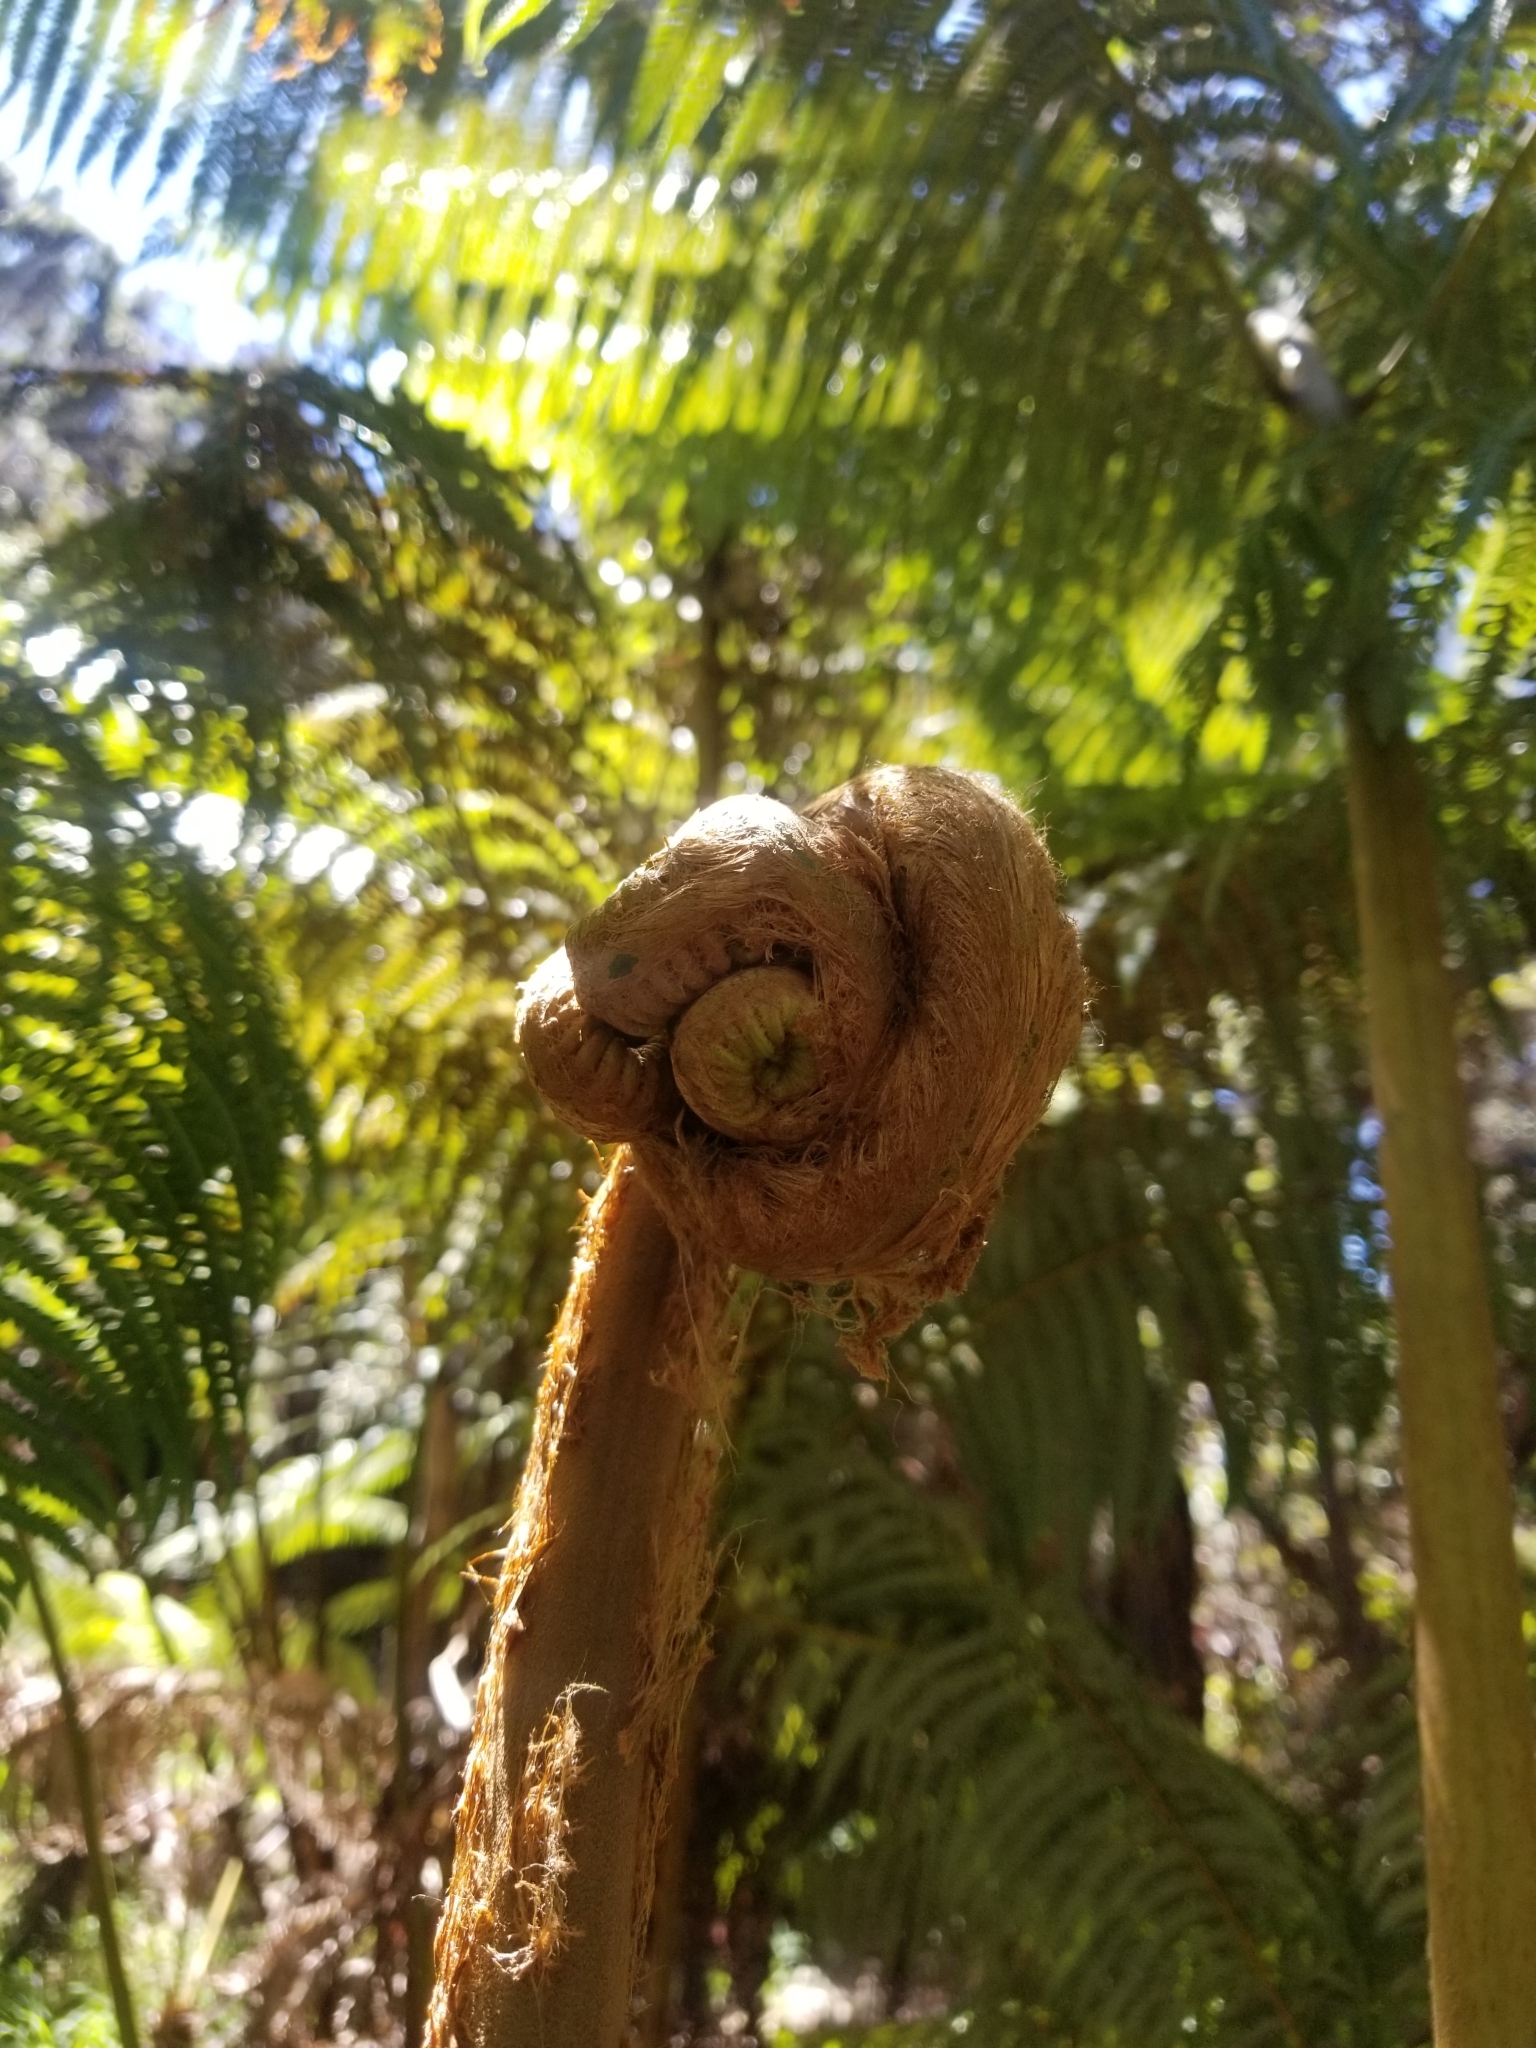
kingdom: Plantae
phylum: Tracheophyta
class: Polypodiopsida
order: Cyatheales
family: Cibotiaceae
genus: Cibotium
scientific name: Cibotium glaucum
